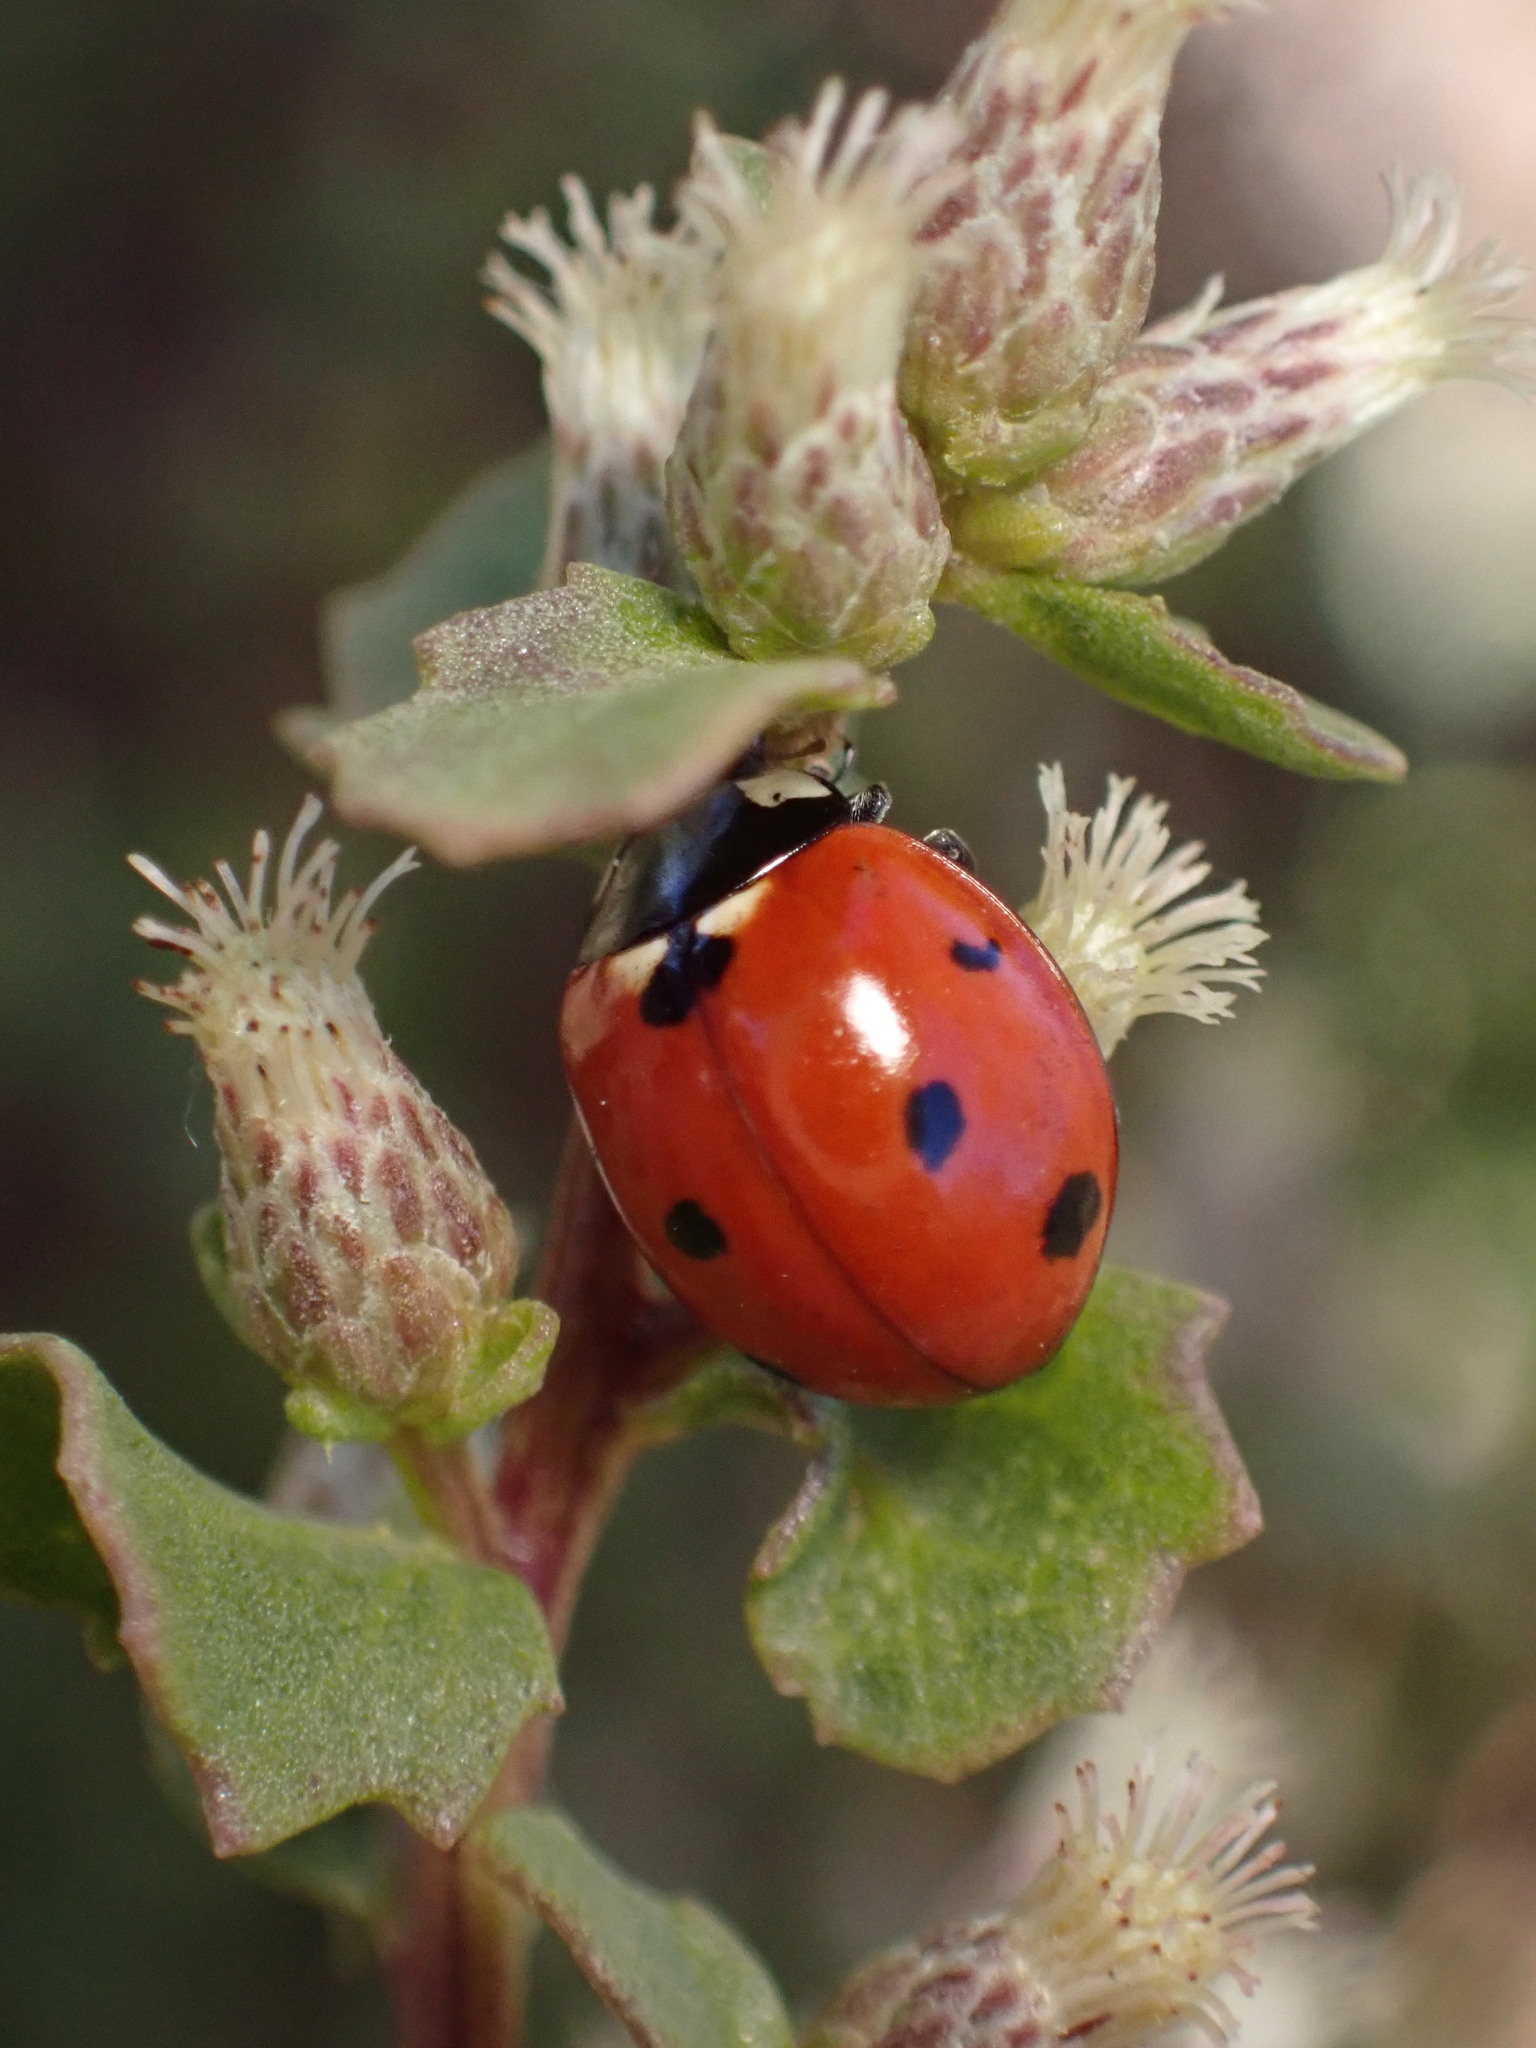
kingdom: Animalia
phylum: Arthropoda
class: Insecta
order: Coleoptera
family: Coccinellidae
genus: Coccinella
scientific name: Coccinella septempunctata
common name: Sevenspotted lady beetle
